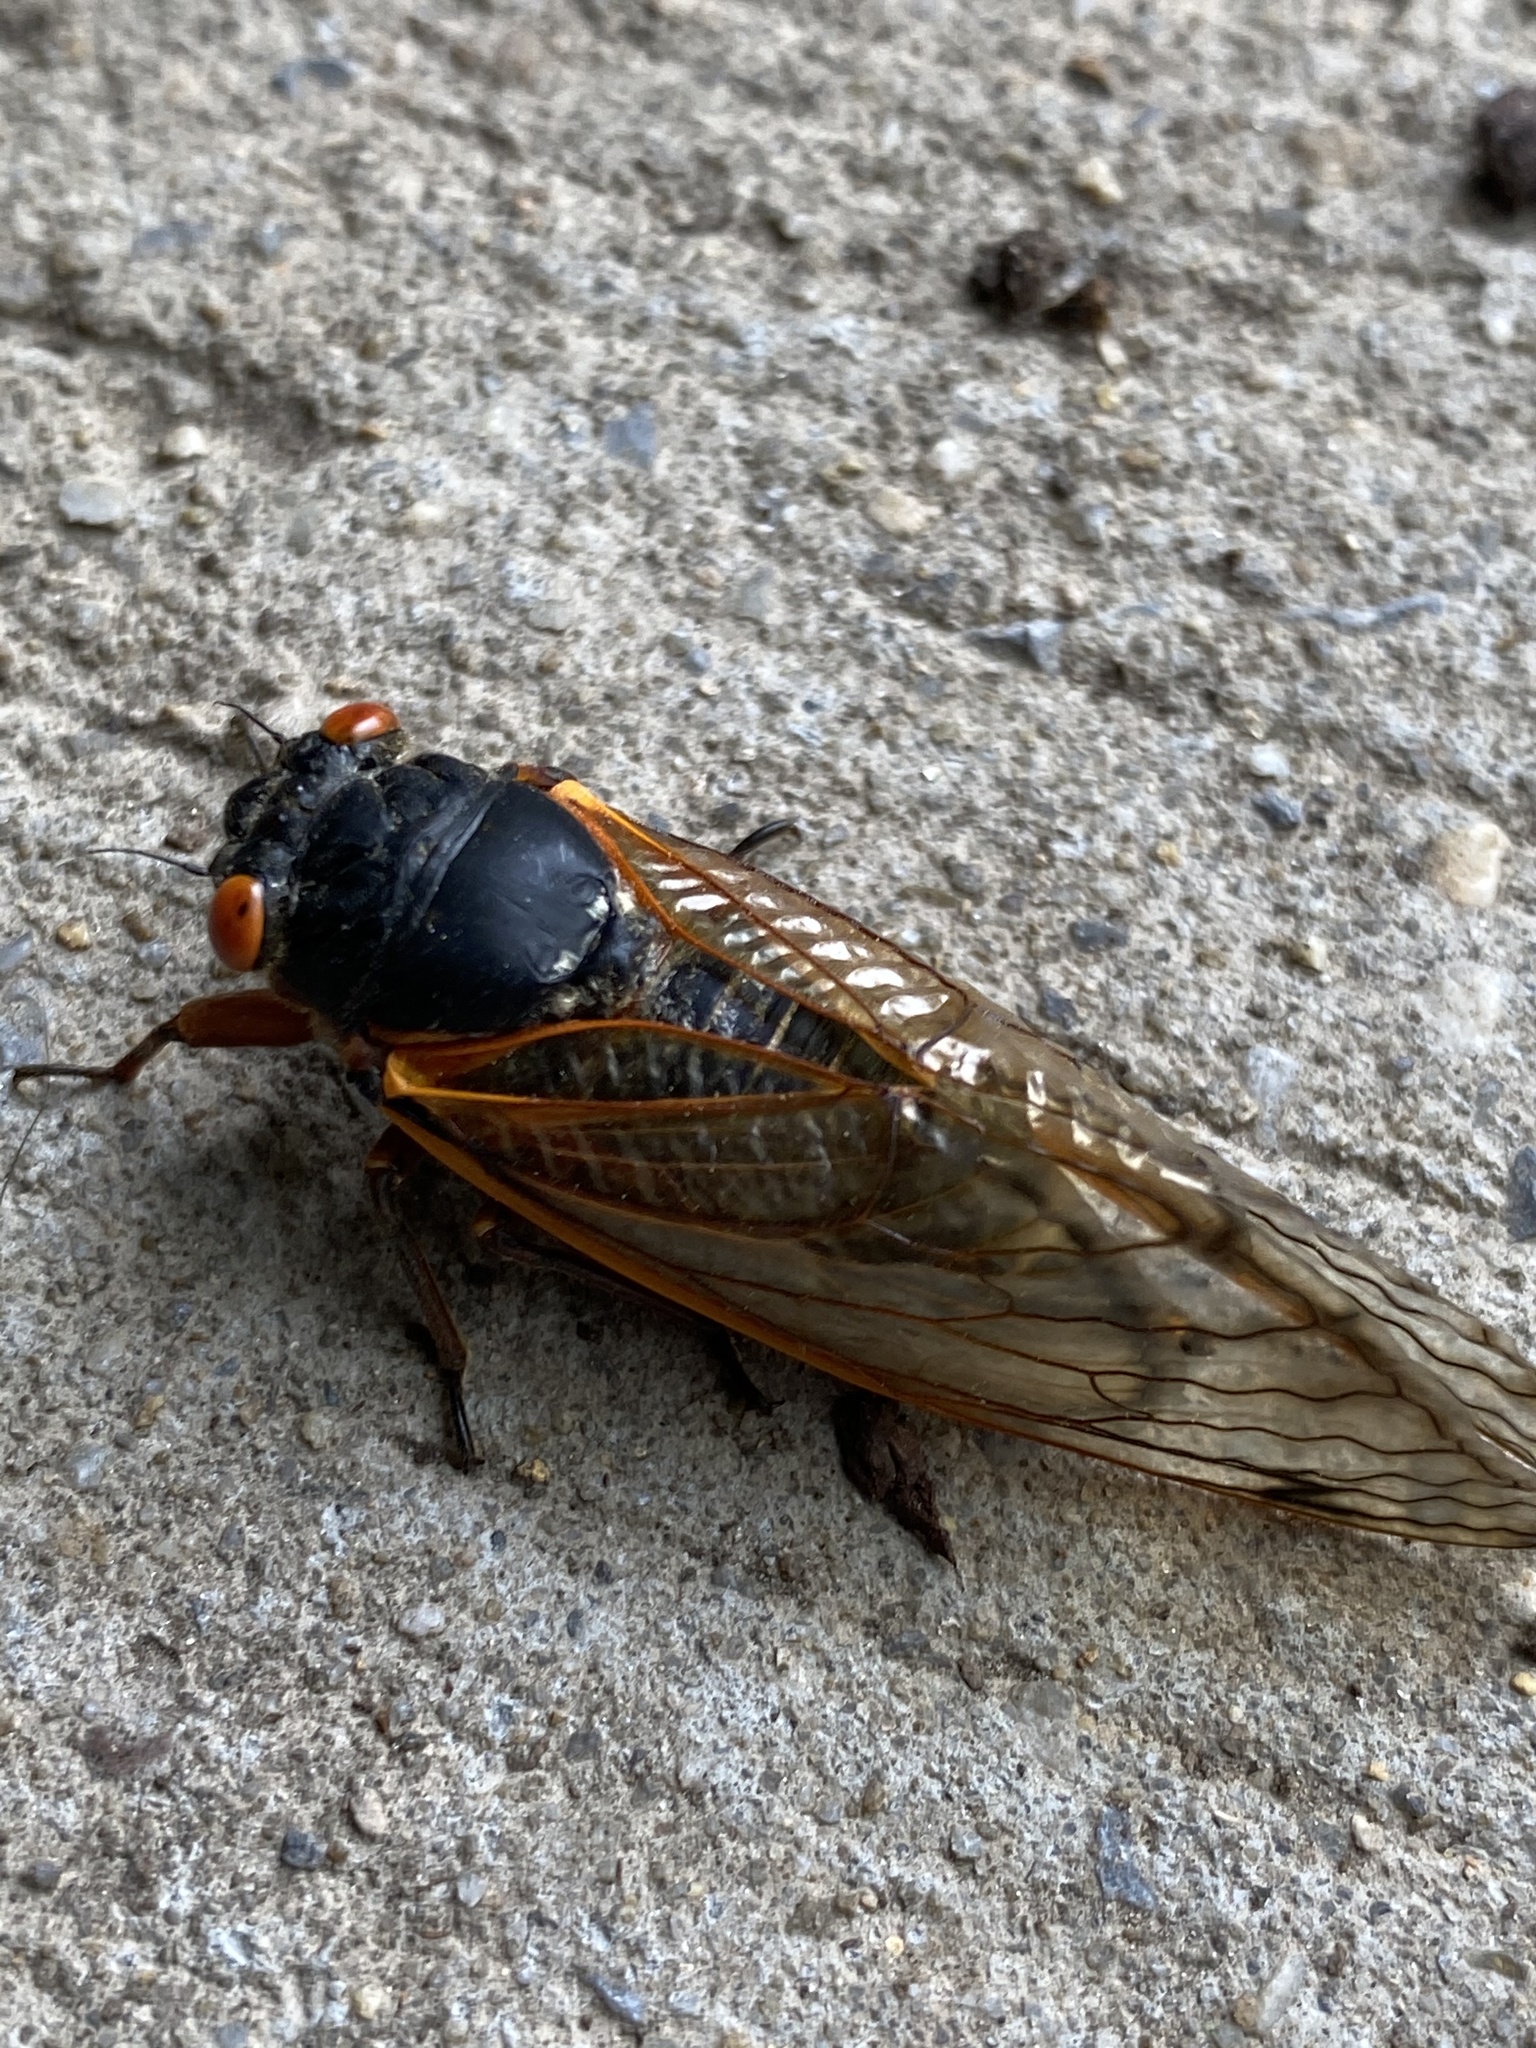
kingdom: Animalia
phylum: Arthropoda
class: Insecta
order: Hemiptera
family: Cicadidae
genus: Magicicada
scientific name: Magicicada
